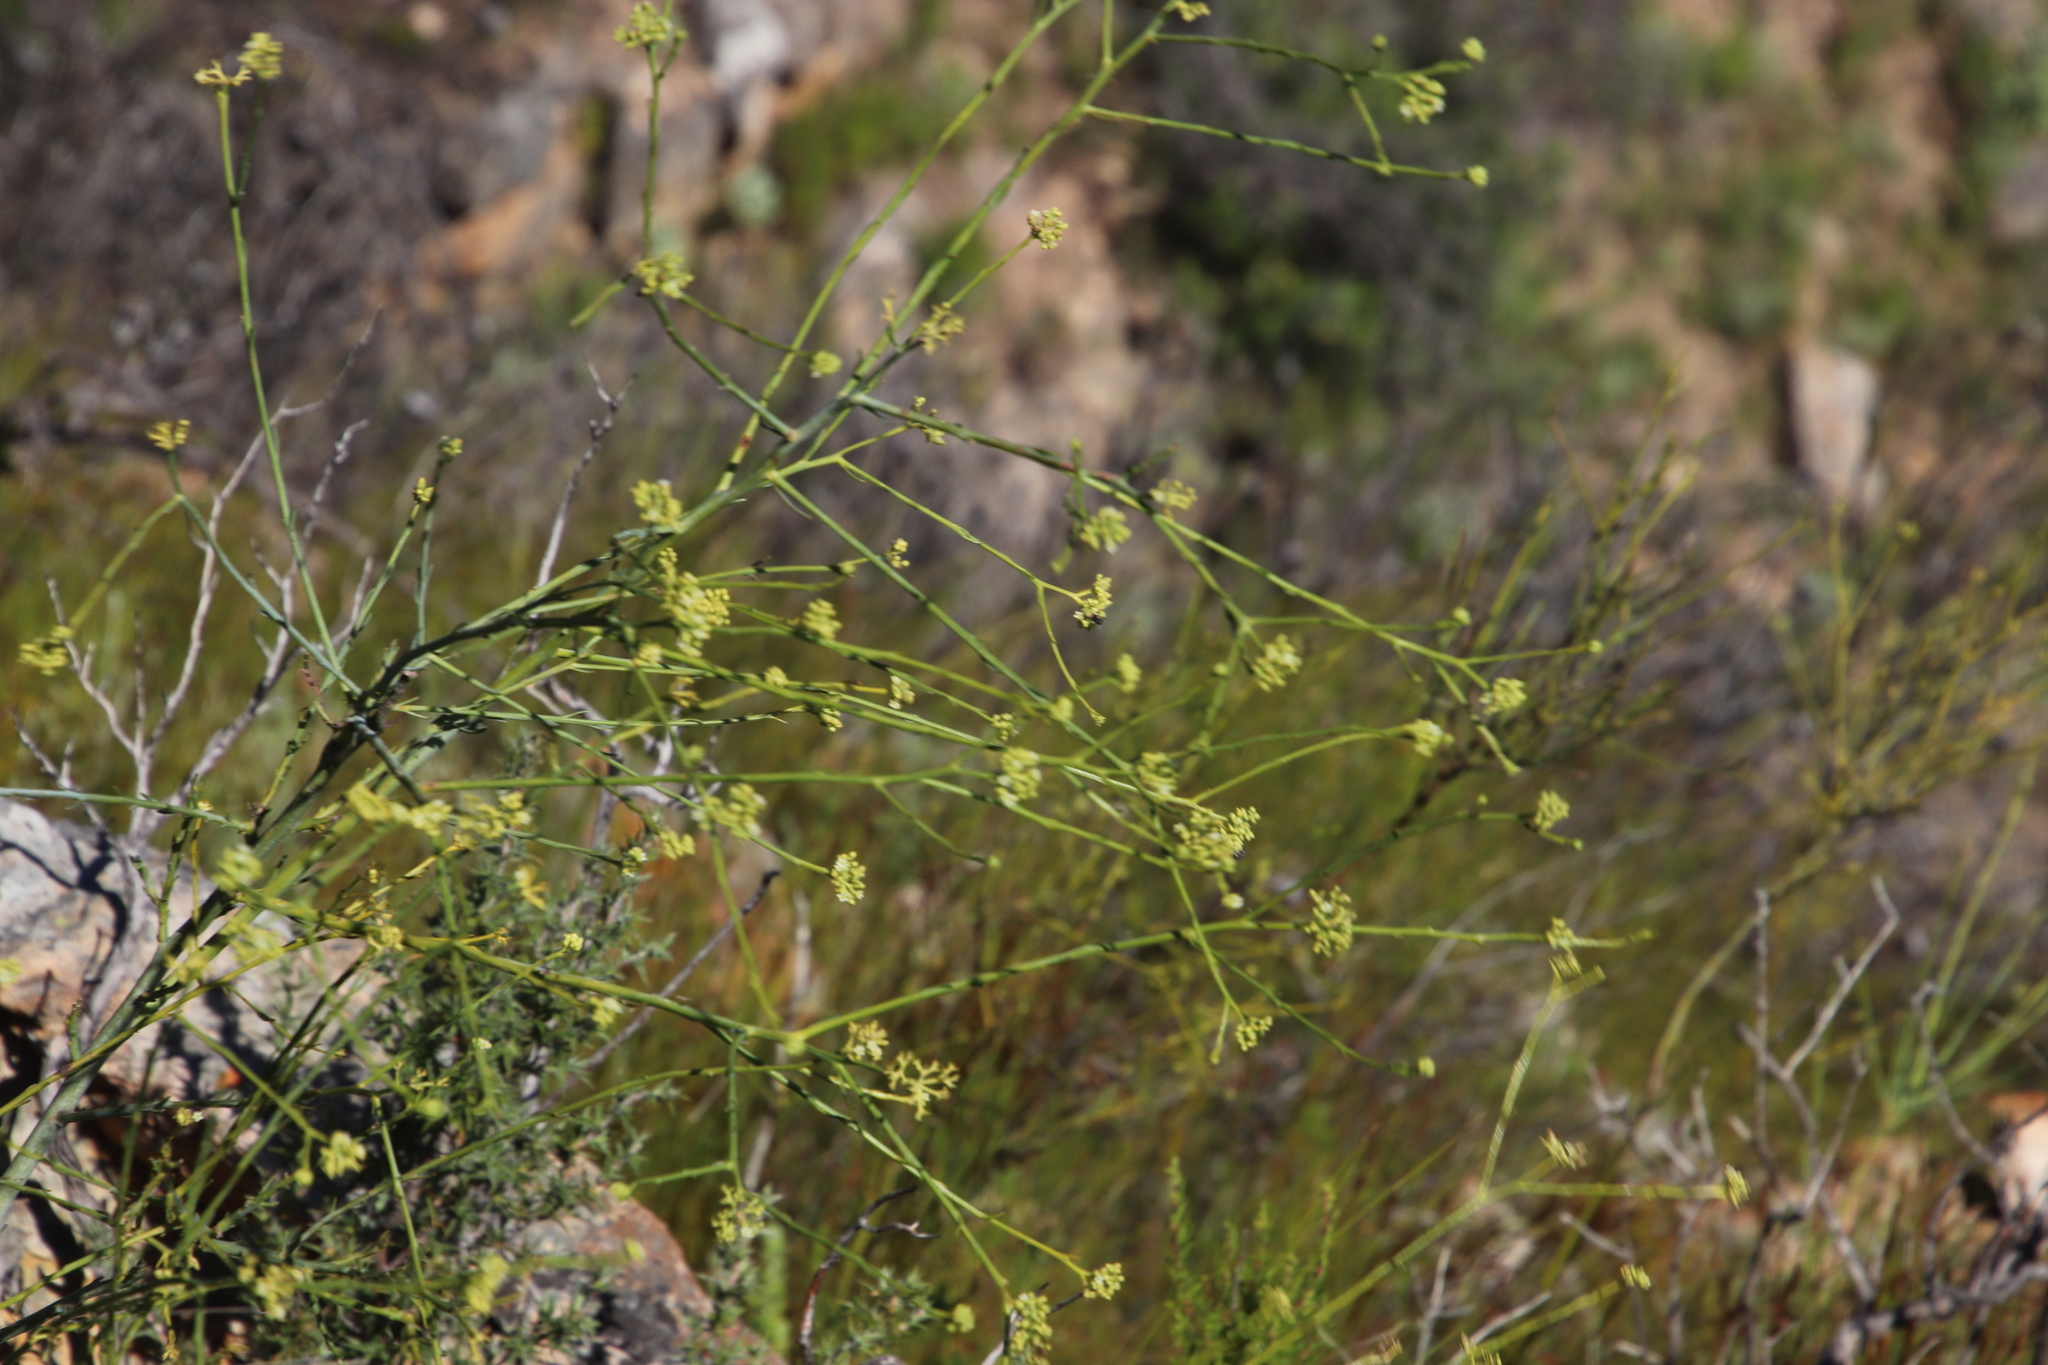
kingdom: Plantae
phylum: Tracheophyta
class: Magnoliopsida
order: Santalales
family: Thesiaceae
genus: Thesium
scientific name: Thesium strictum
